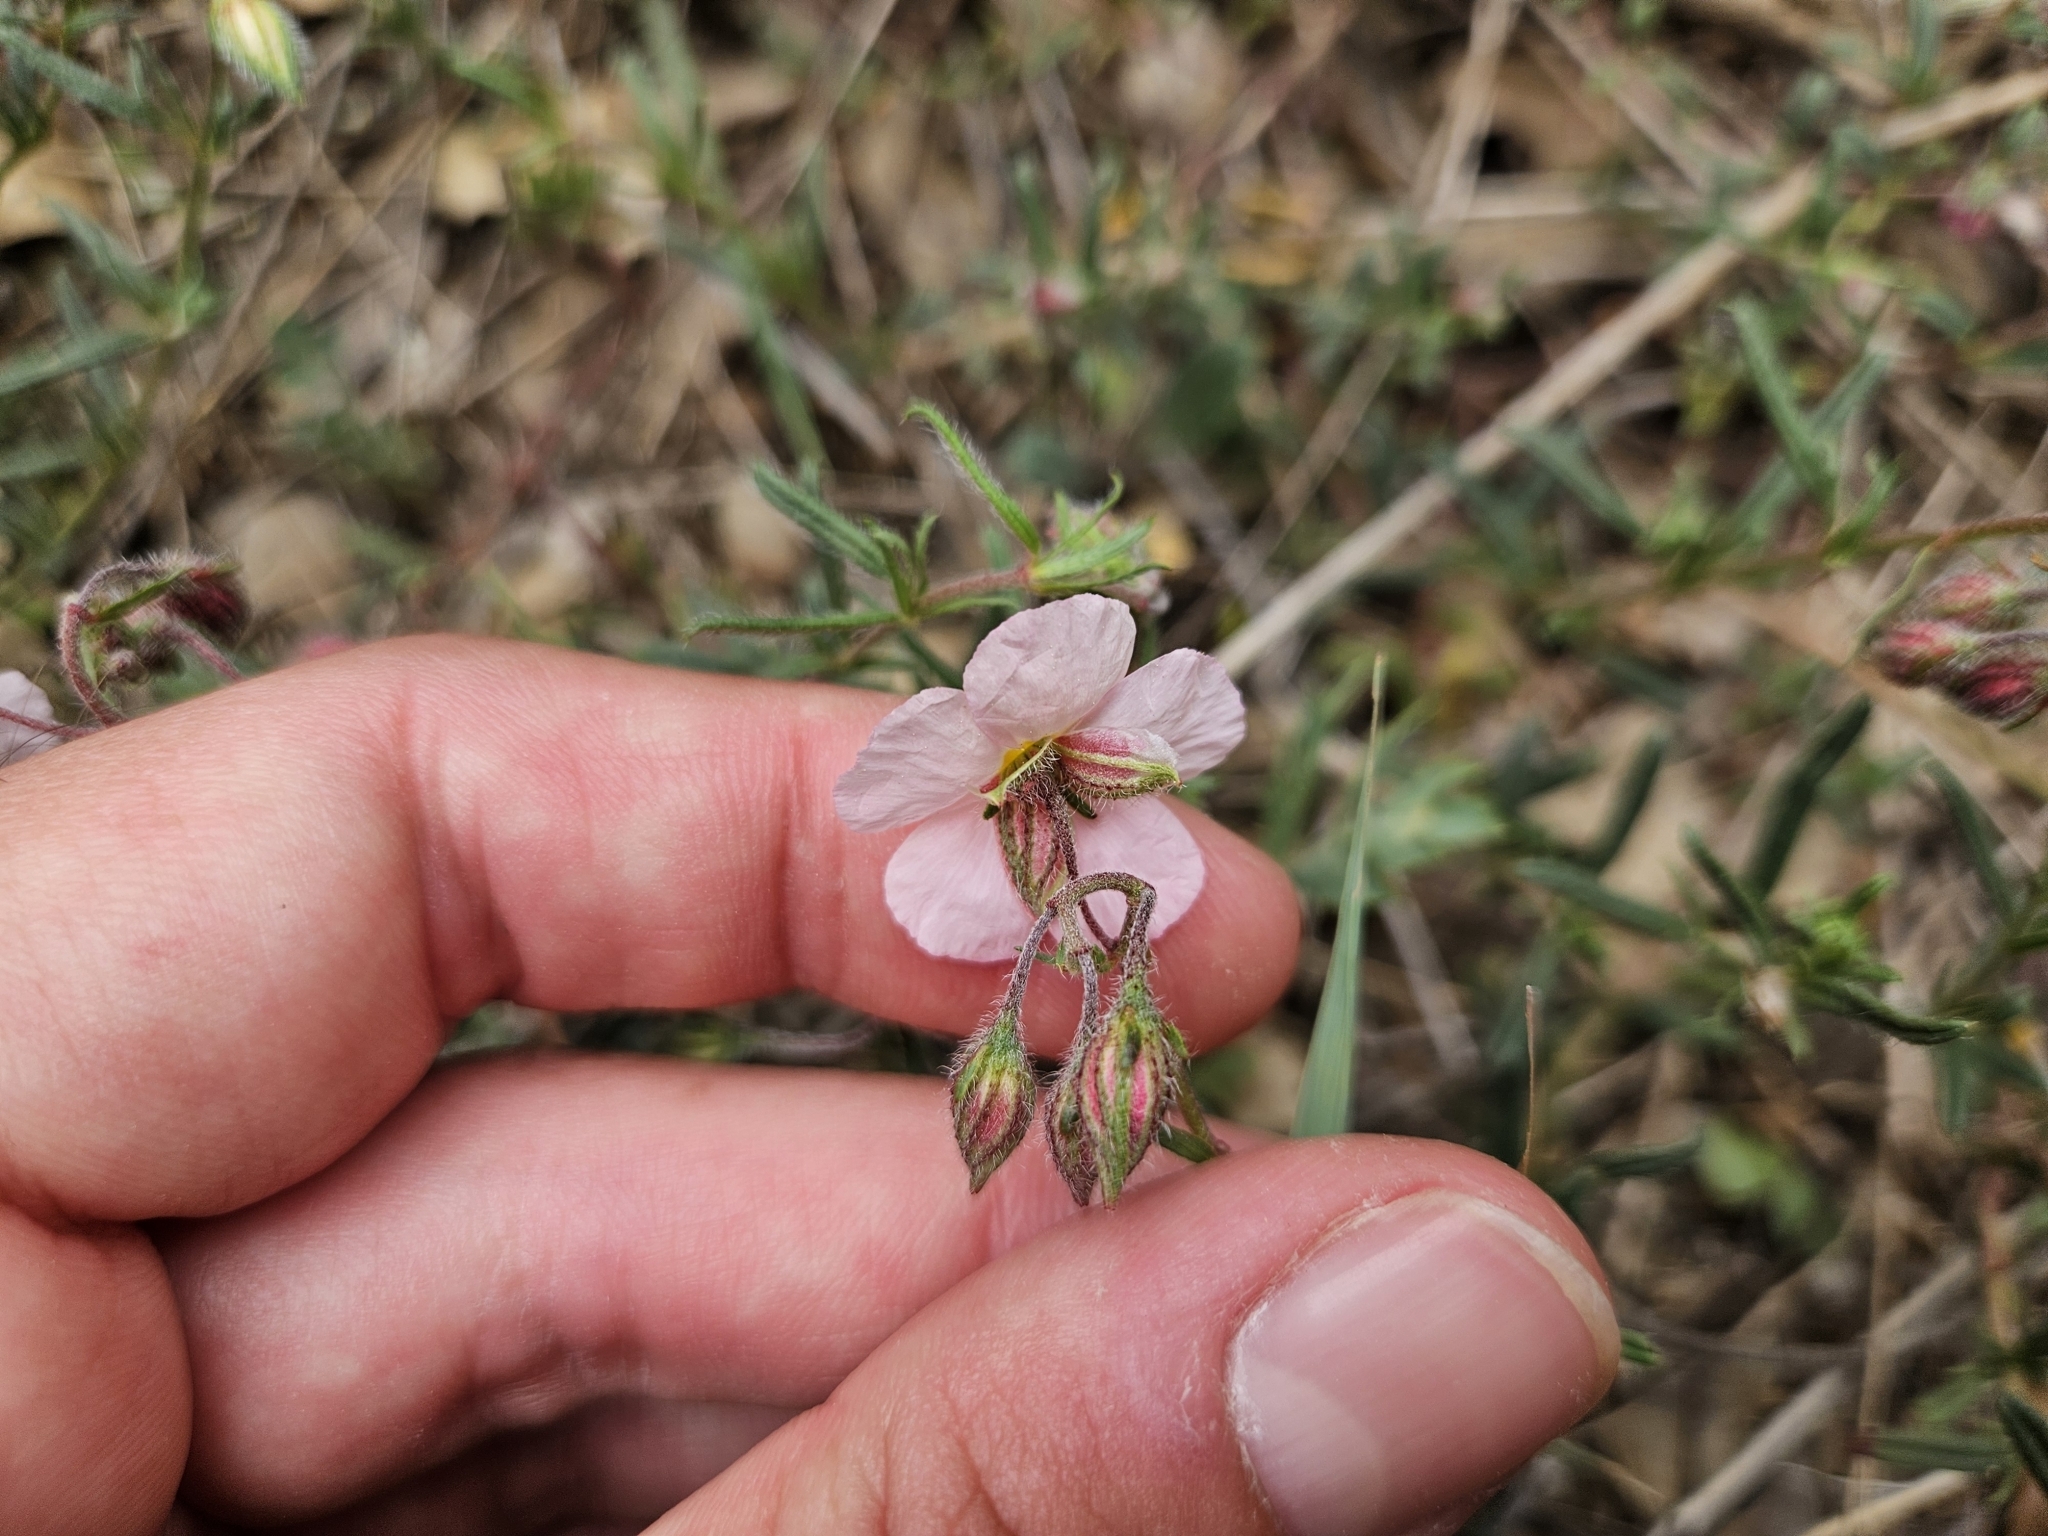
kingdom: Plantae
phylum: Tracheophyta
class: Magnoliopsida
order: Malvales
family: Cistaceae
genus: Helianthemum
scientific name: Helianthemum apenninum
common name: White rock-rose
